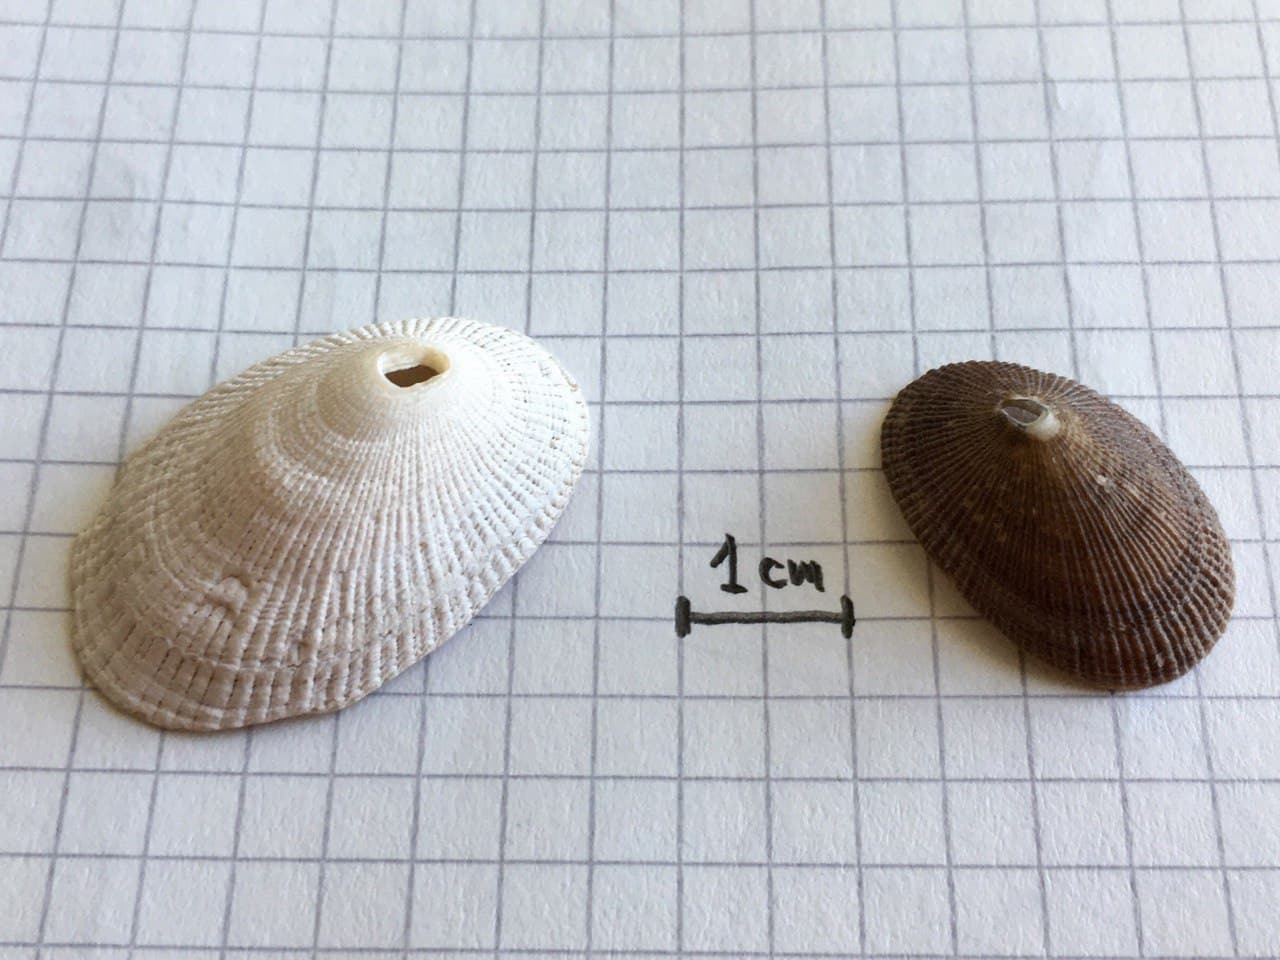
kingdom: Animalia
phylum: Mollusca
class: Gastropoda
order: Lepetellida
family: Fissurellidae
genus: Diodora
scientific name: Diodora patagonica
